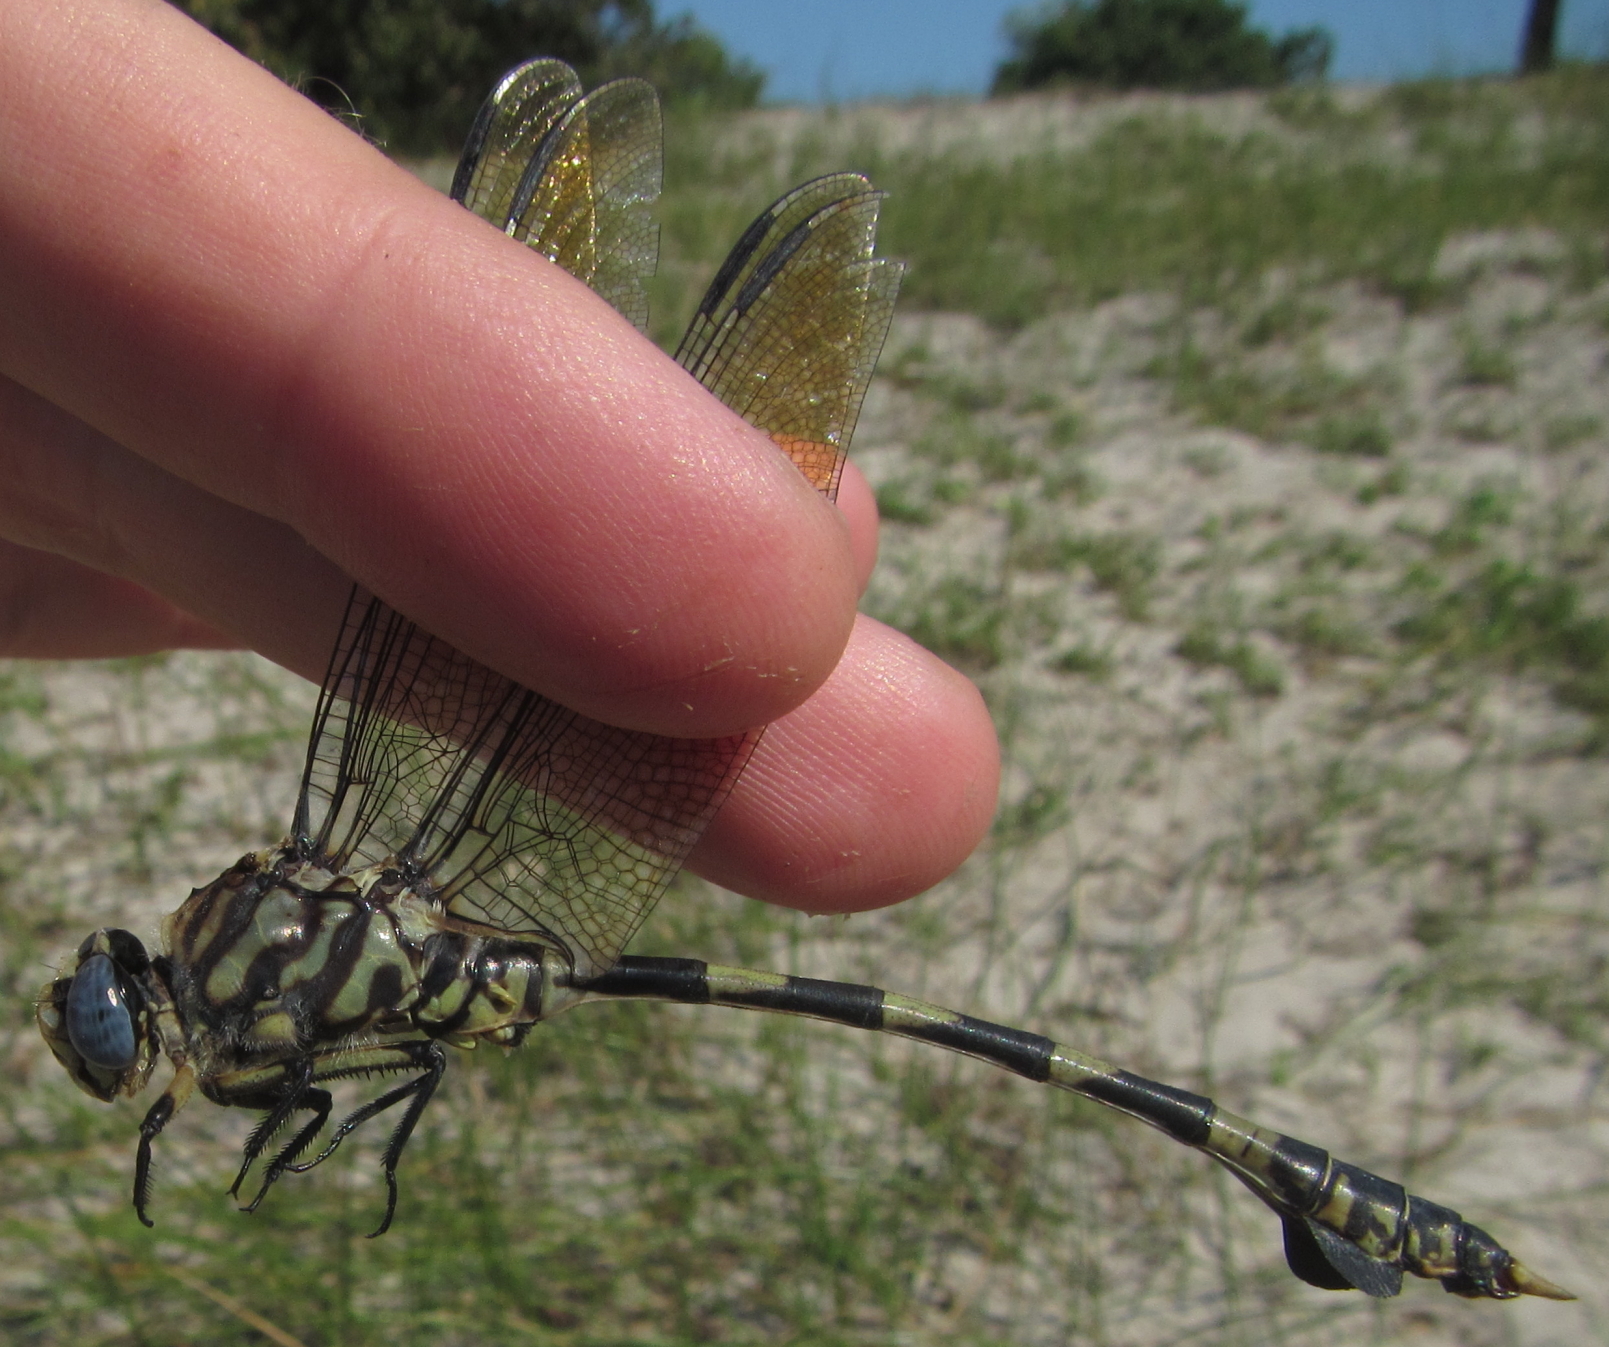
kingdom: Animalia
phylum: Arthropoda
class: Insecta
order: Odonata
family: Gomphidae
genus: Ictinogomphus
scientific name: Ictinogomphus ferox
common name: Common tiger
